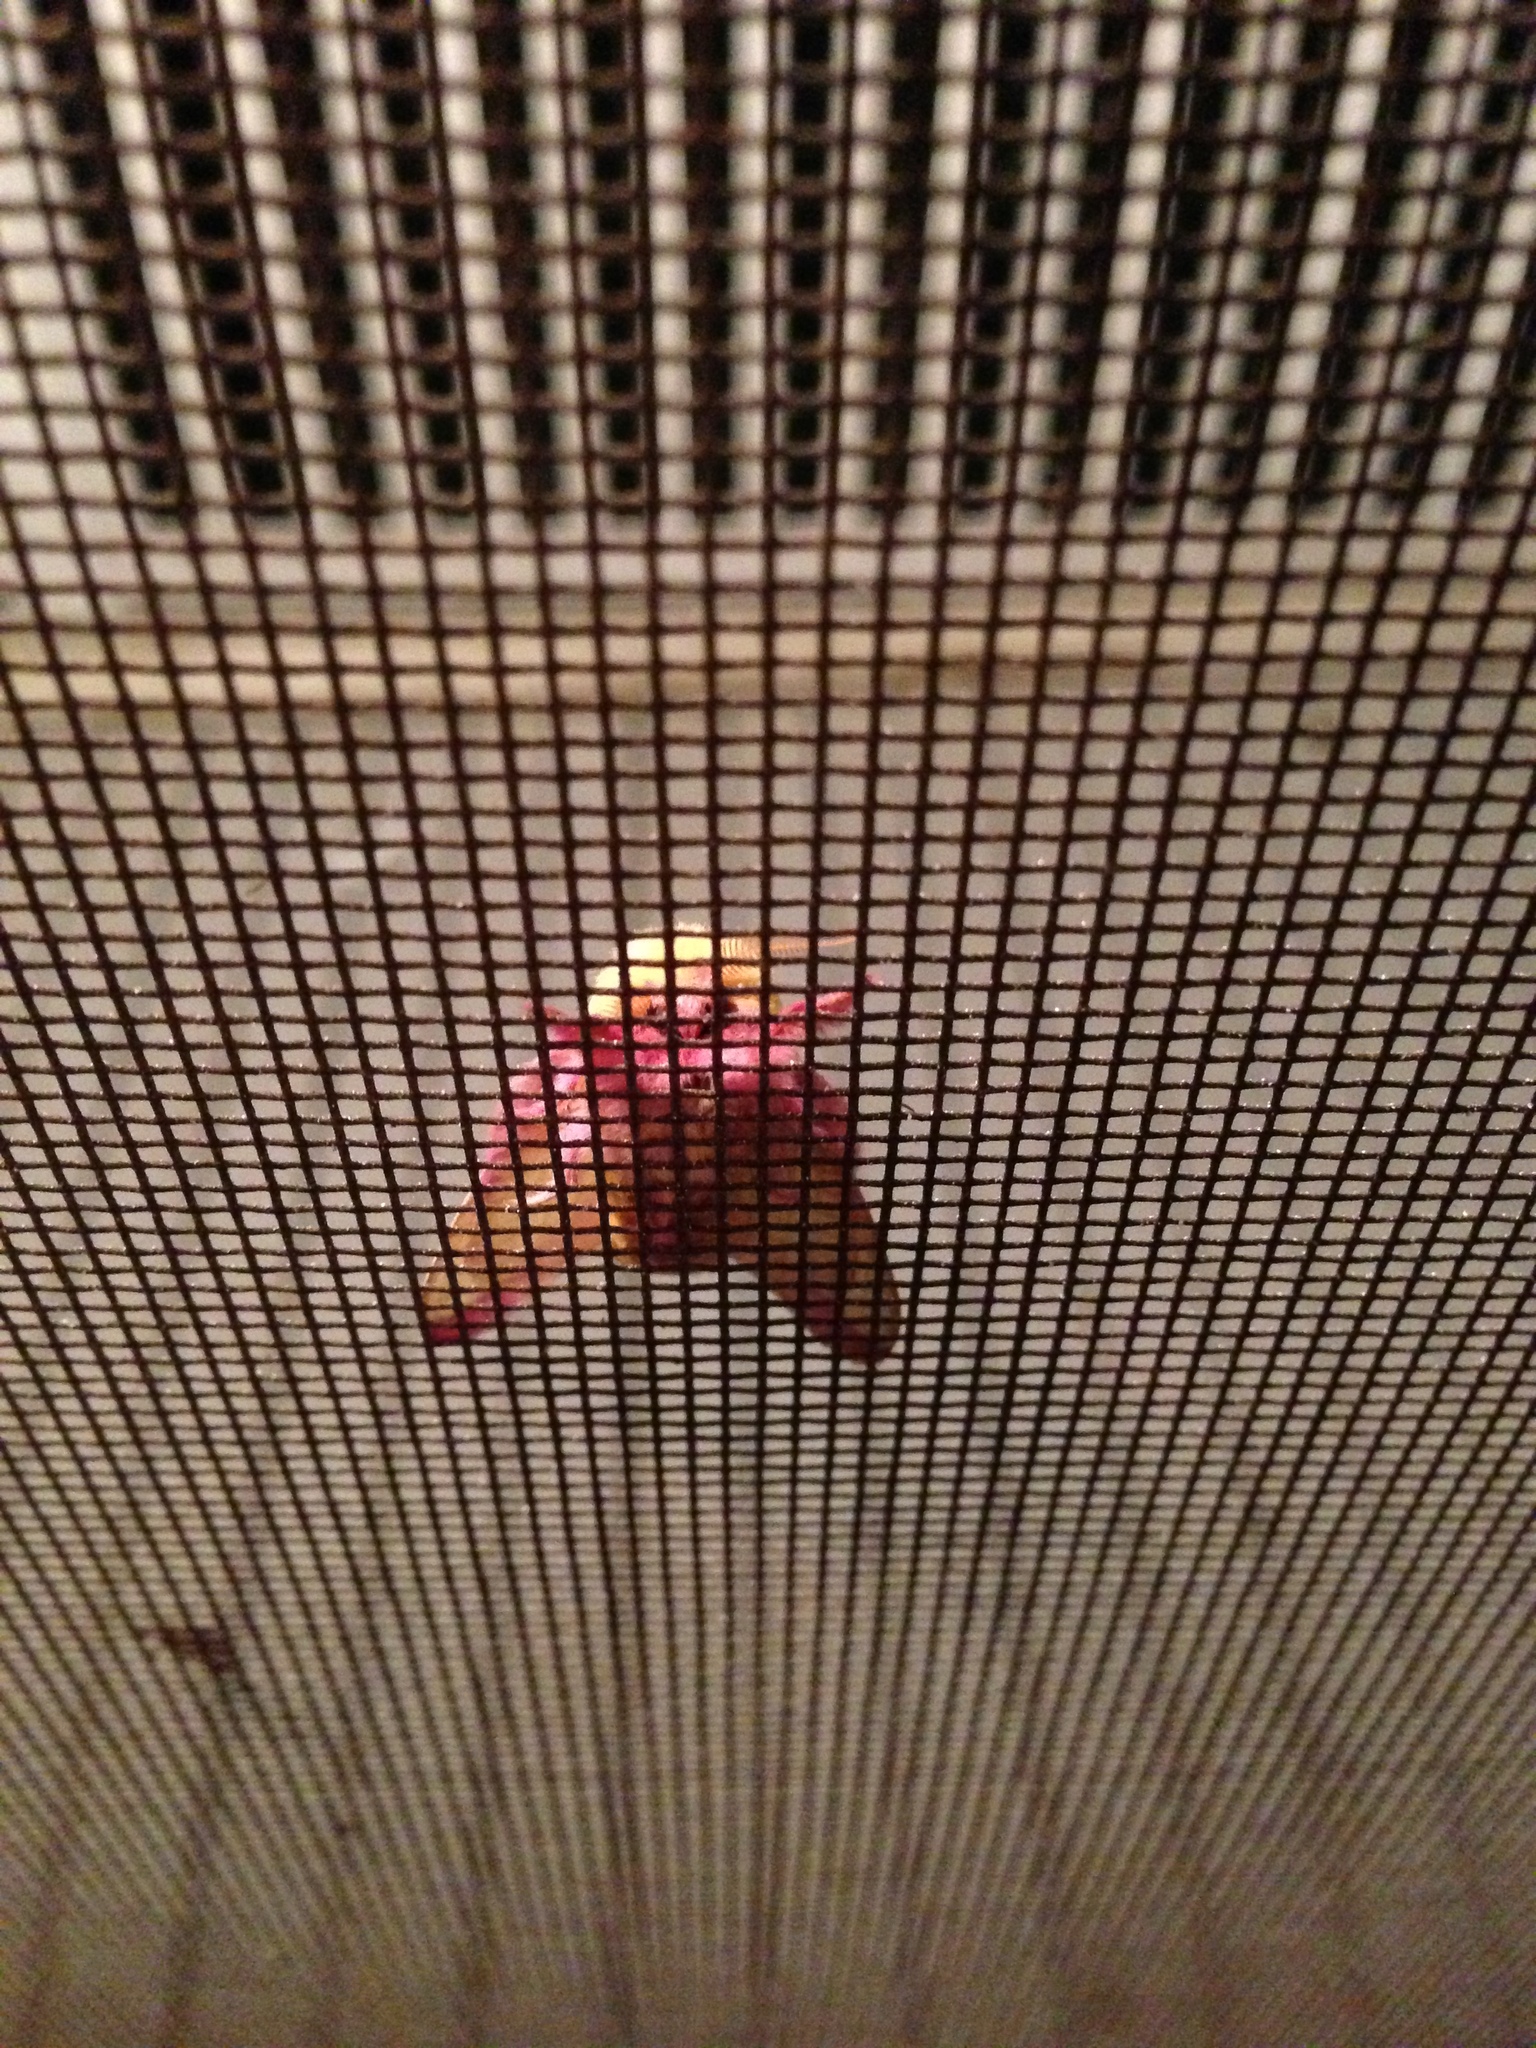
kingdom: Animalia
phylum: Arthropoda
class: Insecta
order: Lepidoptera
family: Saturniidae
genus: Dryocampa
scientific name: Dryocampa rubicunda
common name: Rosy maple moth
